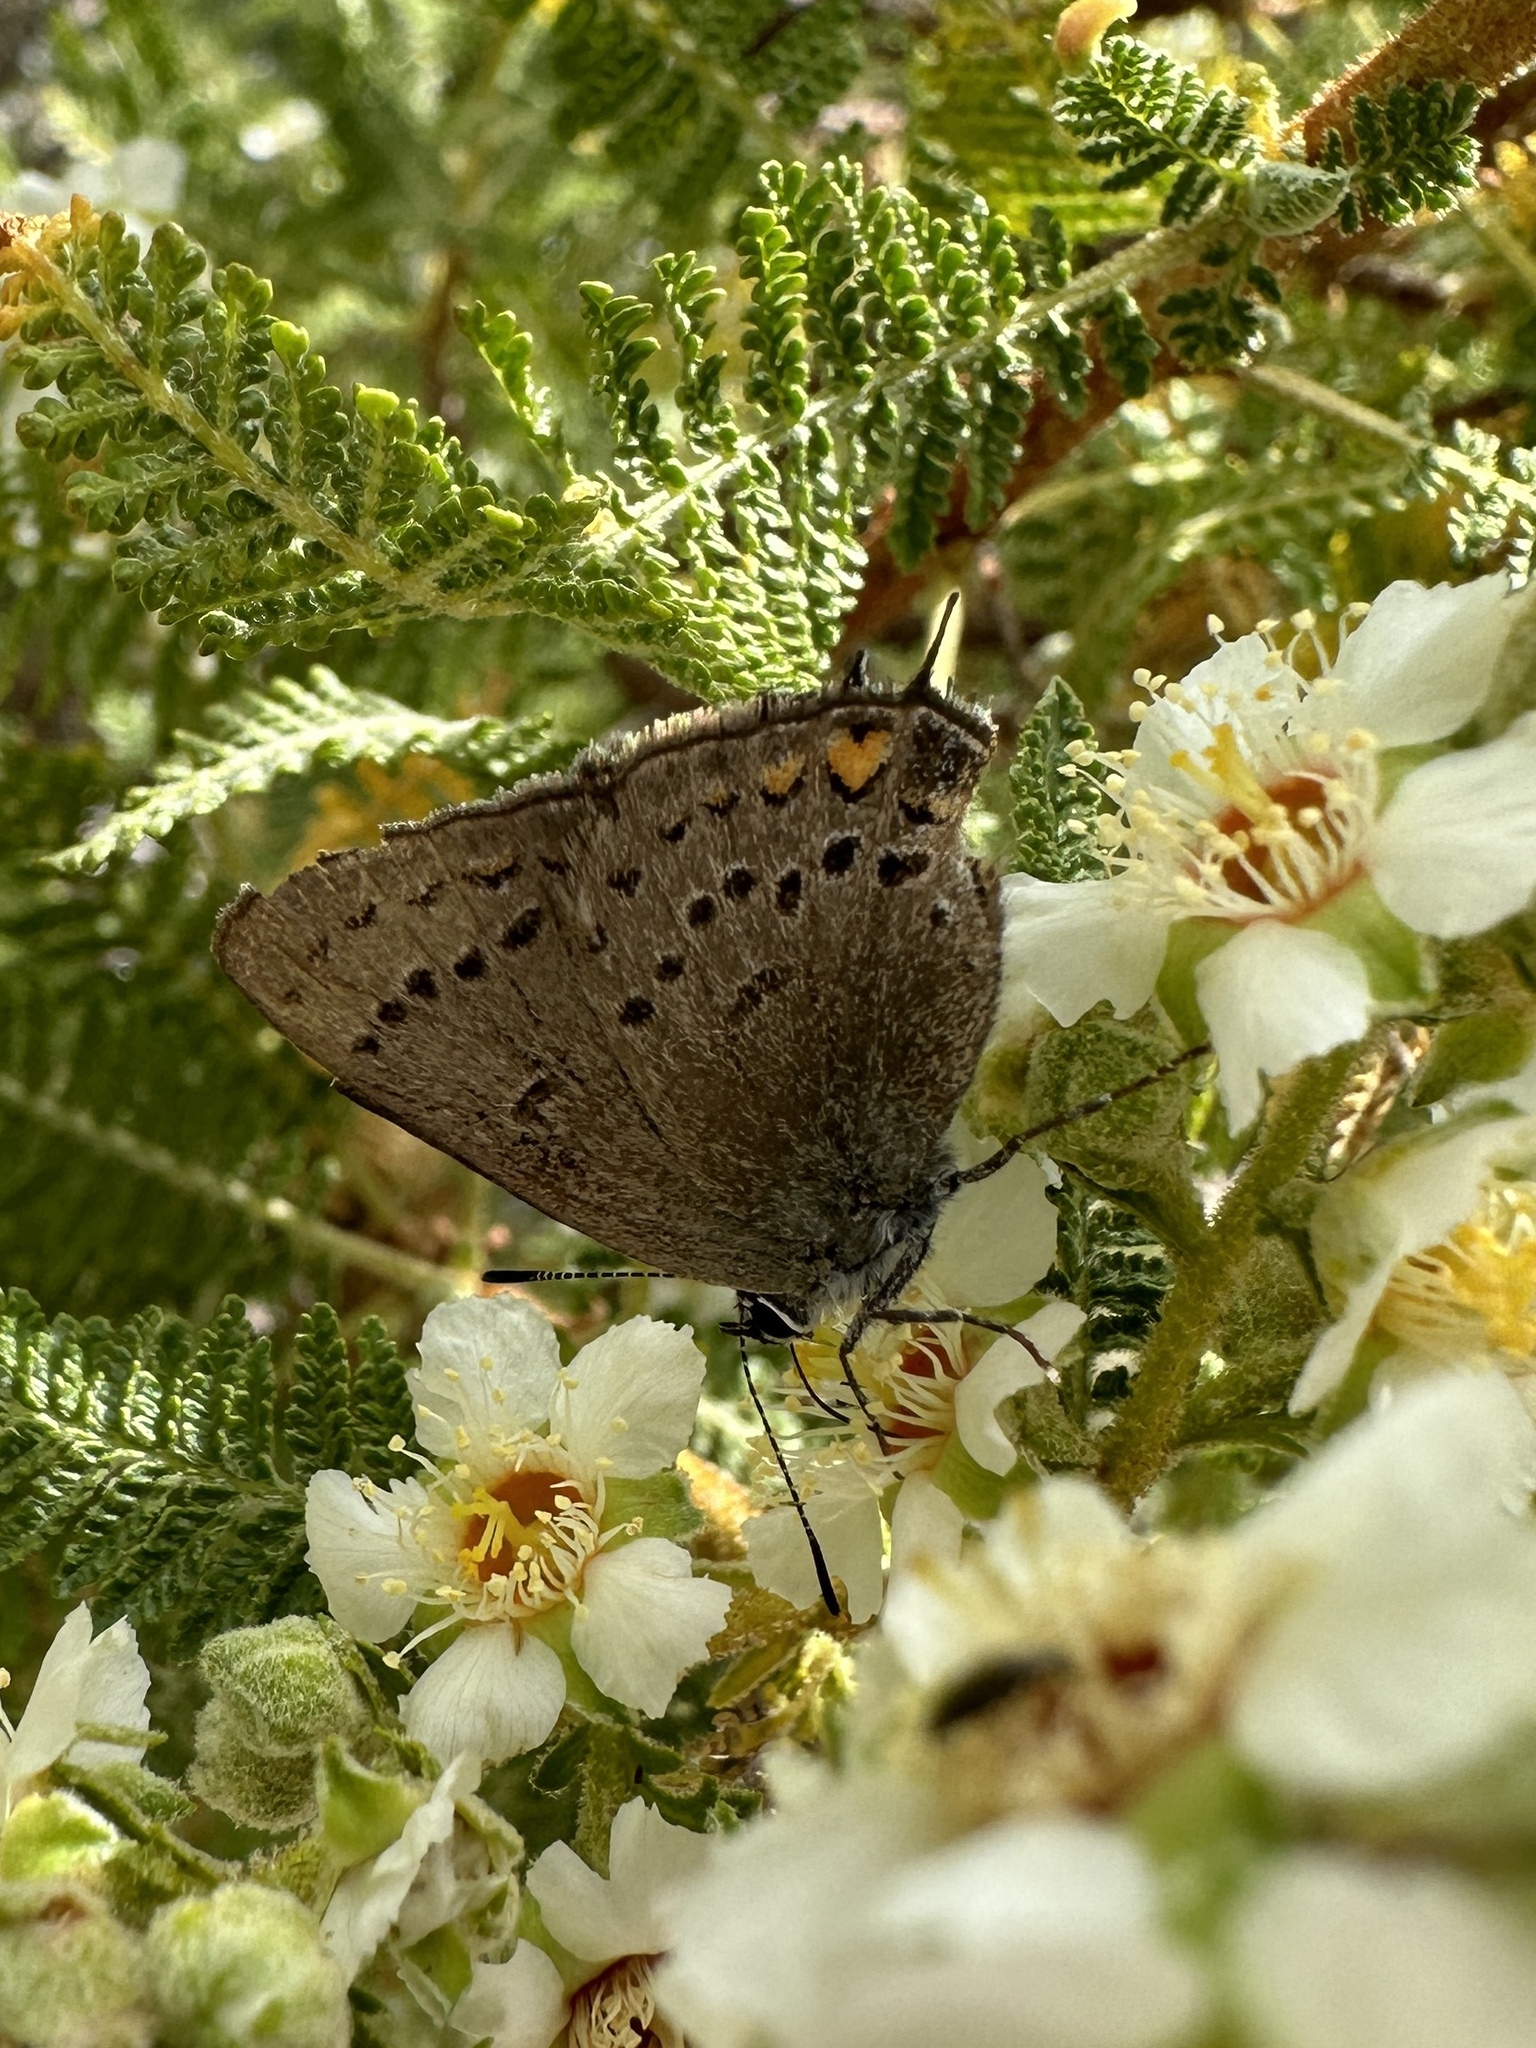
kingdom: Animalia
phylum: Arthropoda
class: Insecta
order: Lepidoptera
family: Lycaenidae
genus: Strymon
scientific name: Strymon acadica
